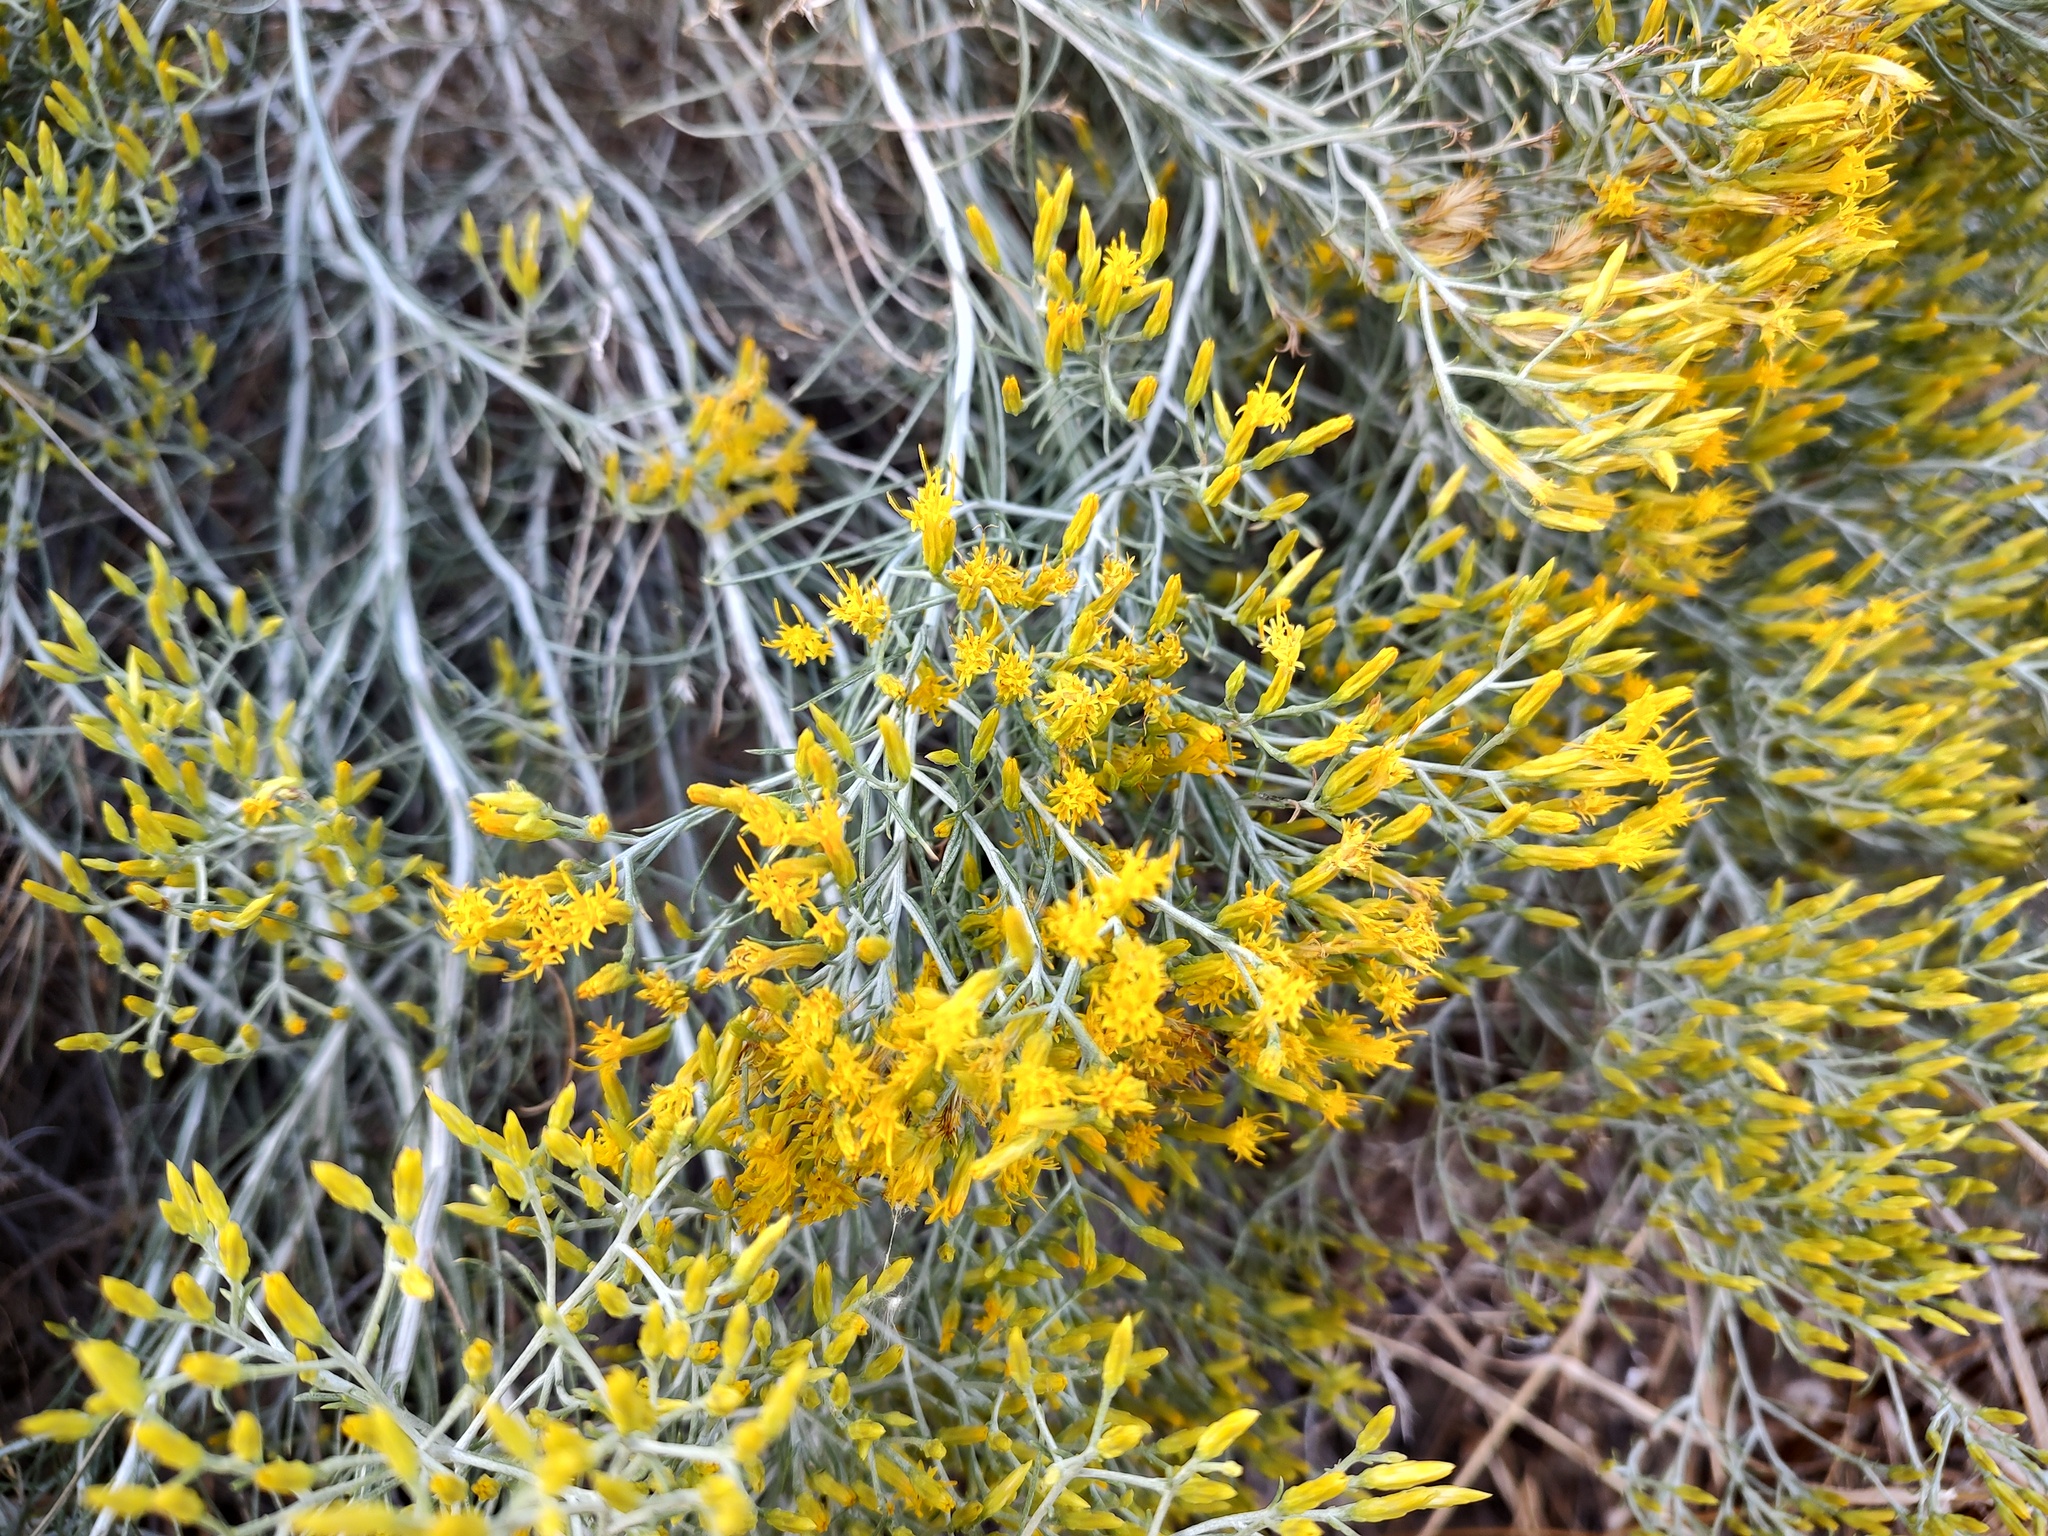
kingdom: Plantae
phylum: Tracheophyta
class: Magnoliopsida
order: Asterales
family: Asteraceae
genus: Ericameria
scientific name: Ericameria nauseosa
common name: Rubber rabbitbrush
